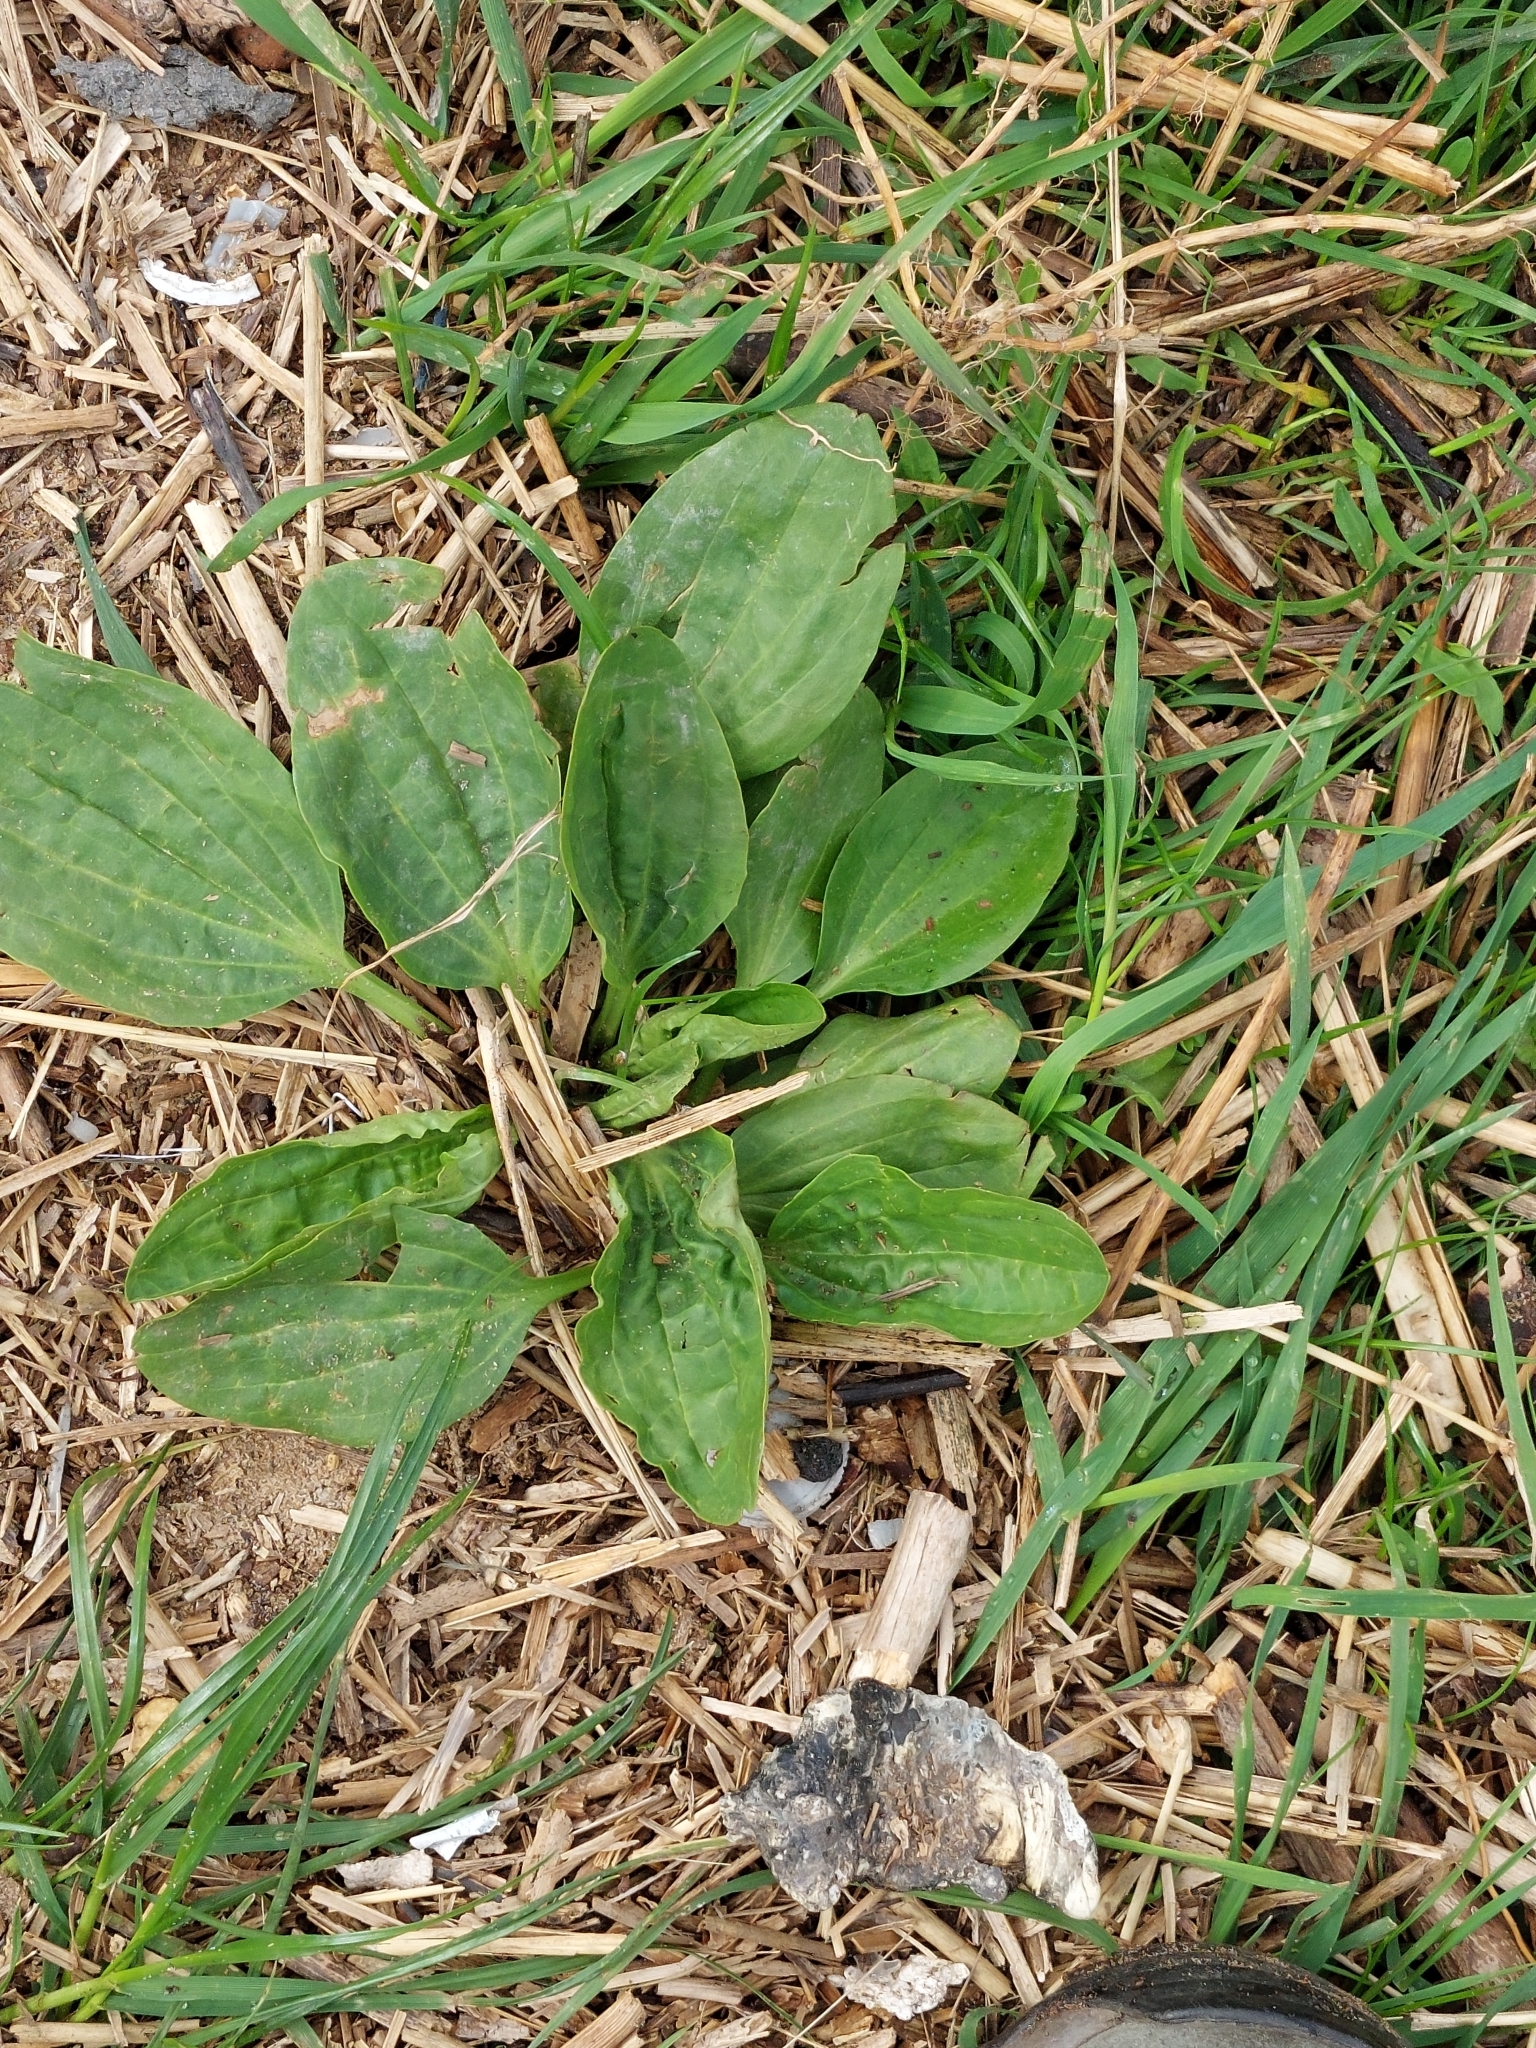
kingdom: Plantae
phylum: Tracheophyta
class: Magnoliopsida
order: Lamiales
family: Plantaginaceae
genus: Plantago
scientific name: Plantago major
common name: Common plantain
